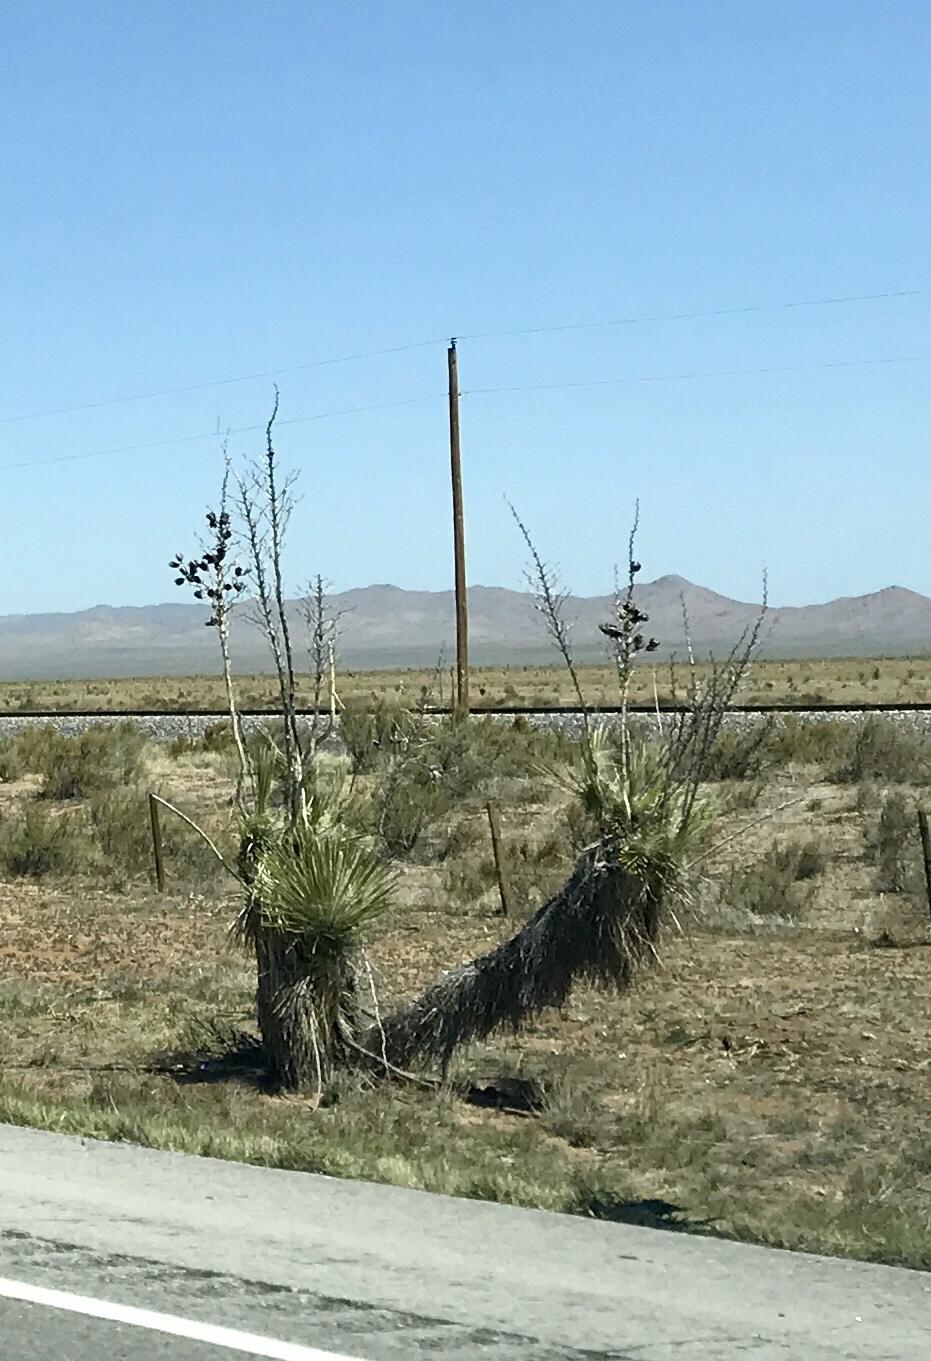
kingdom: Plantae
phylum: Tracheophyta
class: Liliopsida
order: Asparagales
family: Asparagaceae
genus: Yucca
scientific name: Yucca elata
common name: Palmella
